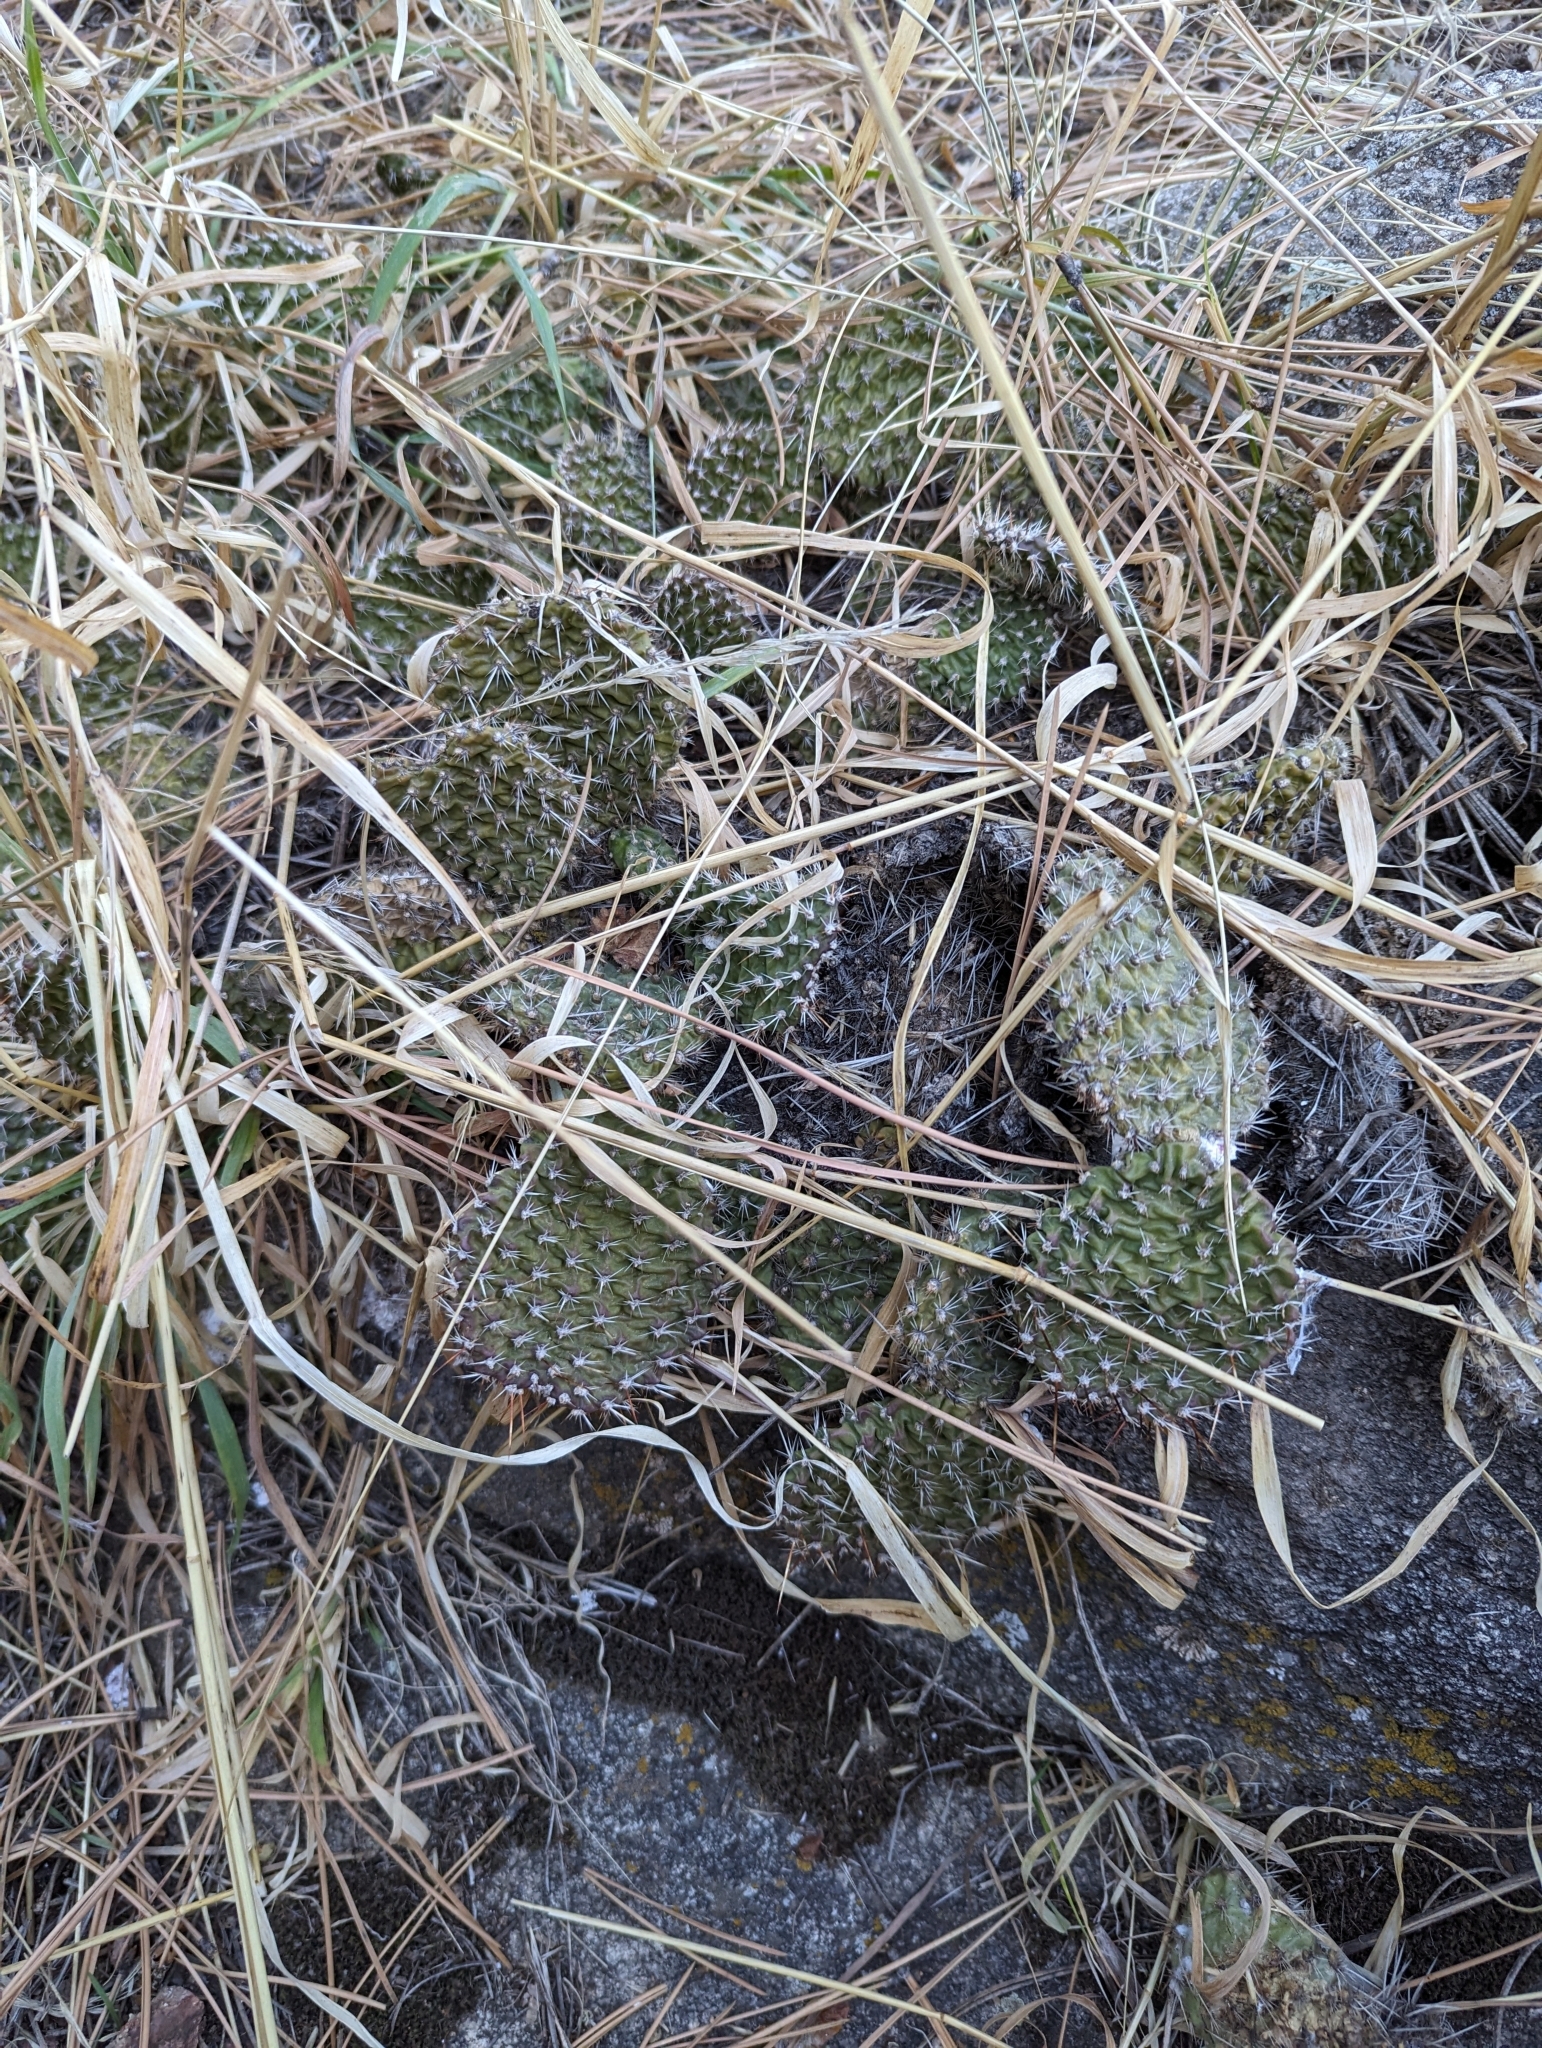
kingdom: Plantae
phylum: Tracheophyta
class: Magnoliopsida
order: Caryophyllales
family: Cactaceae
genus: Opuntia
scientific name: Opuntia polyacantha
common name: Plains prickly-pear
